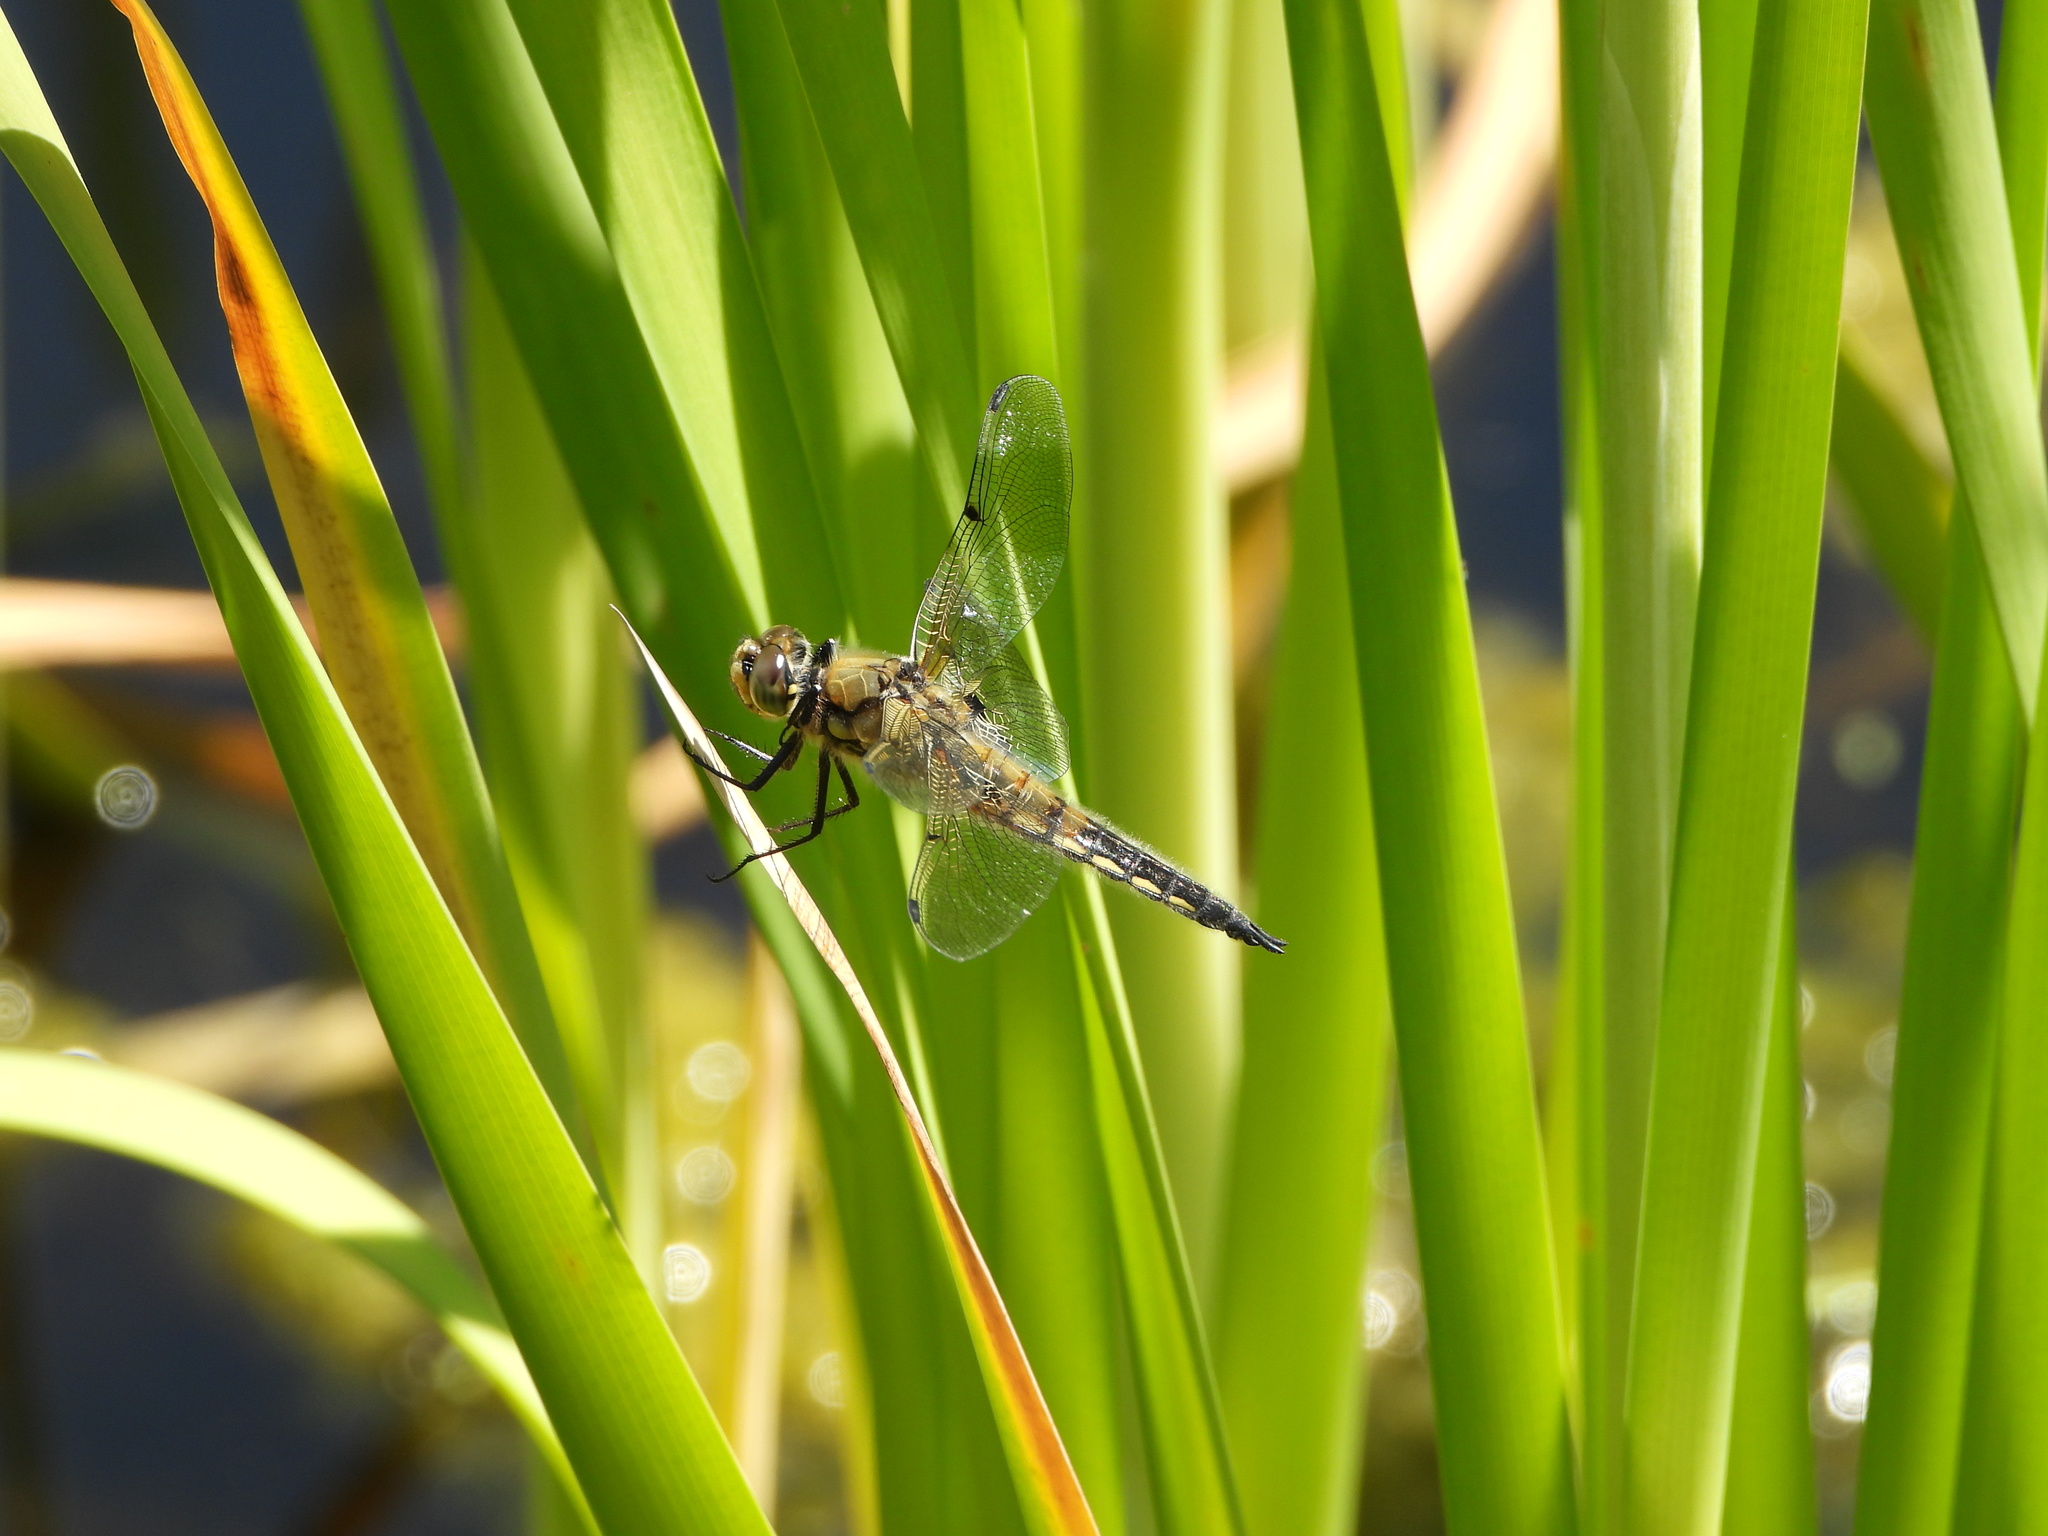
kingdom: Animalia
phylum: Arthropoda
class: Insecta
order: Odonata
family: Libellulidae
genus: Libellula
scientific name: Libellula quadrimaculata
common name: Four-spotted chaser
